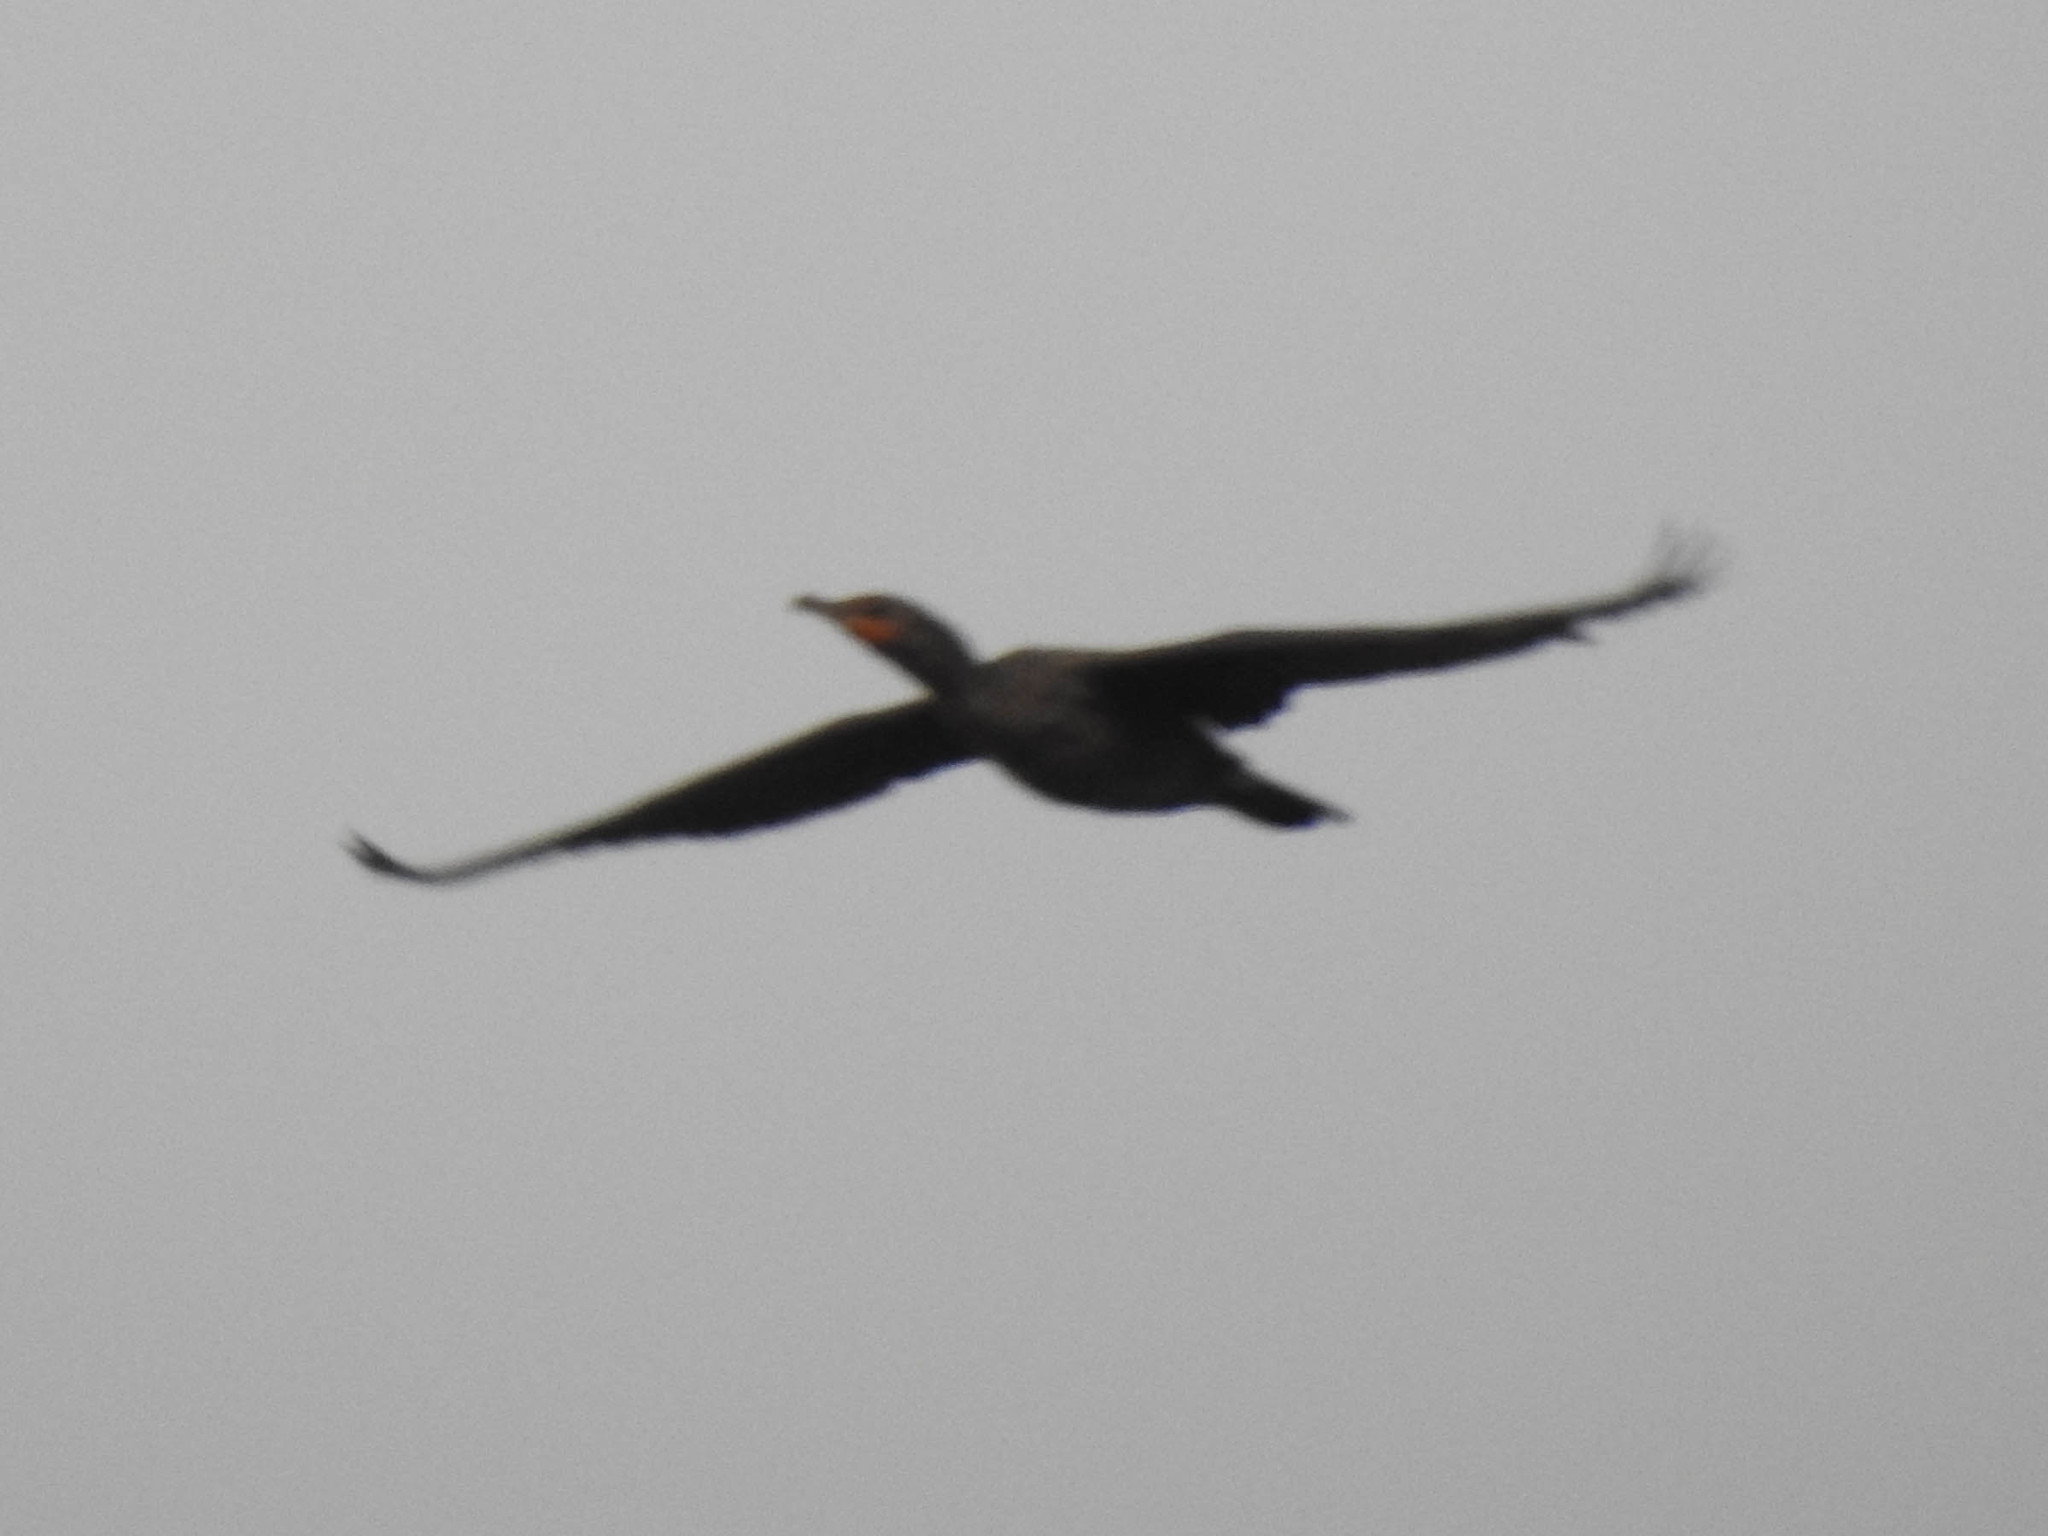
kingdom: Animalia
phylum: Chordata
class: Aves
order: Suliformes
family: Phalacrocoracidae
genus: Phalacrocorax
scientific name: Phalacrocorax auritus
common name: Double-crested cormorant
